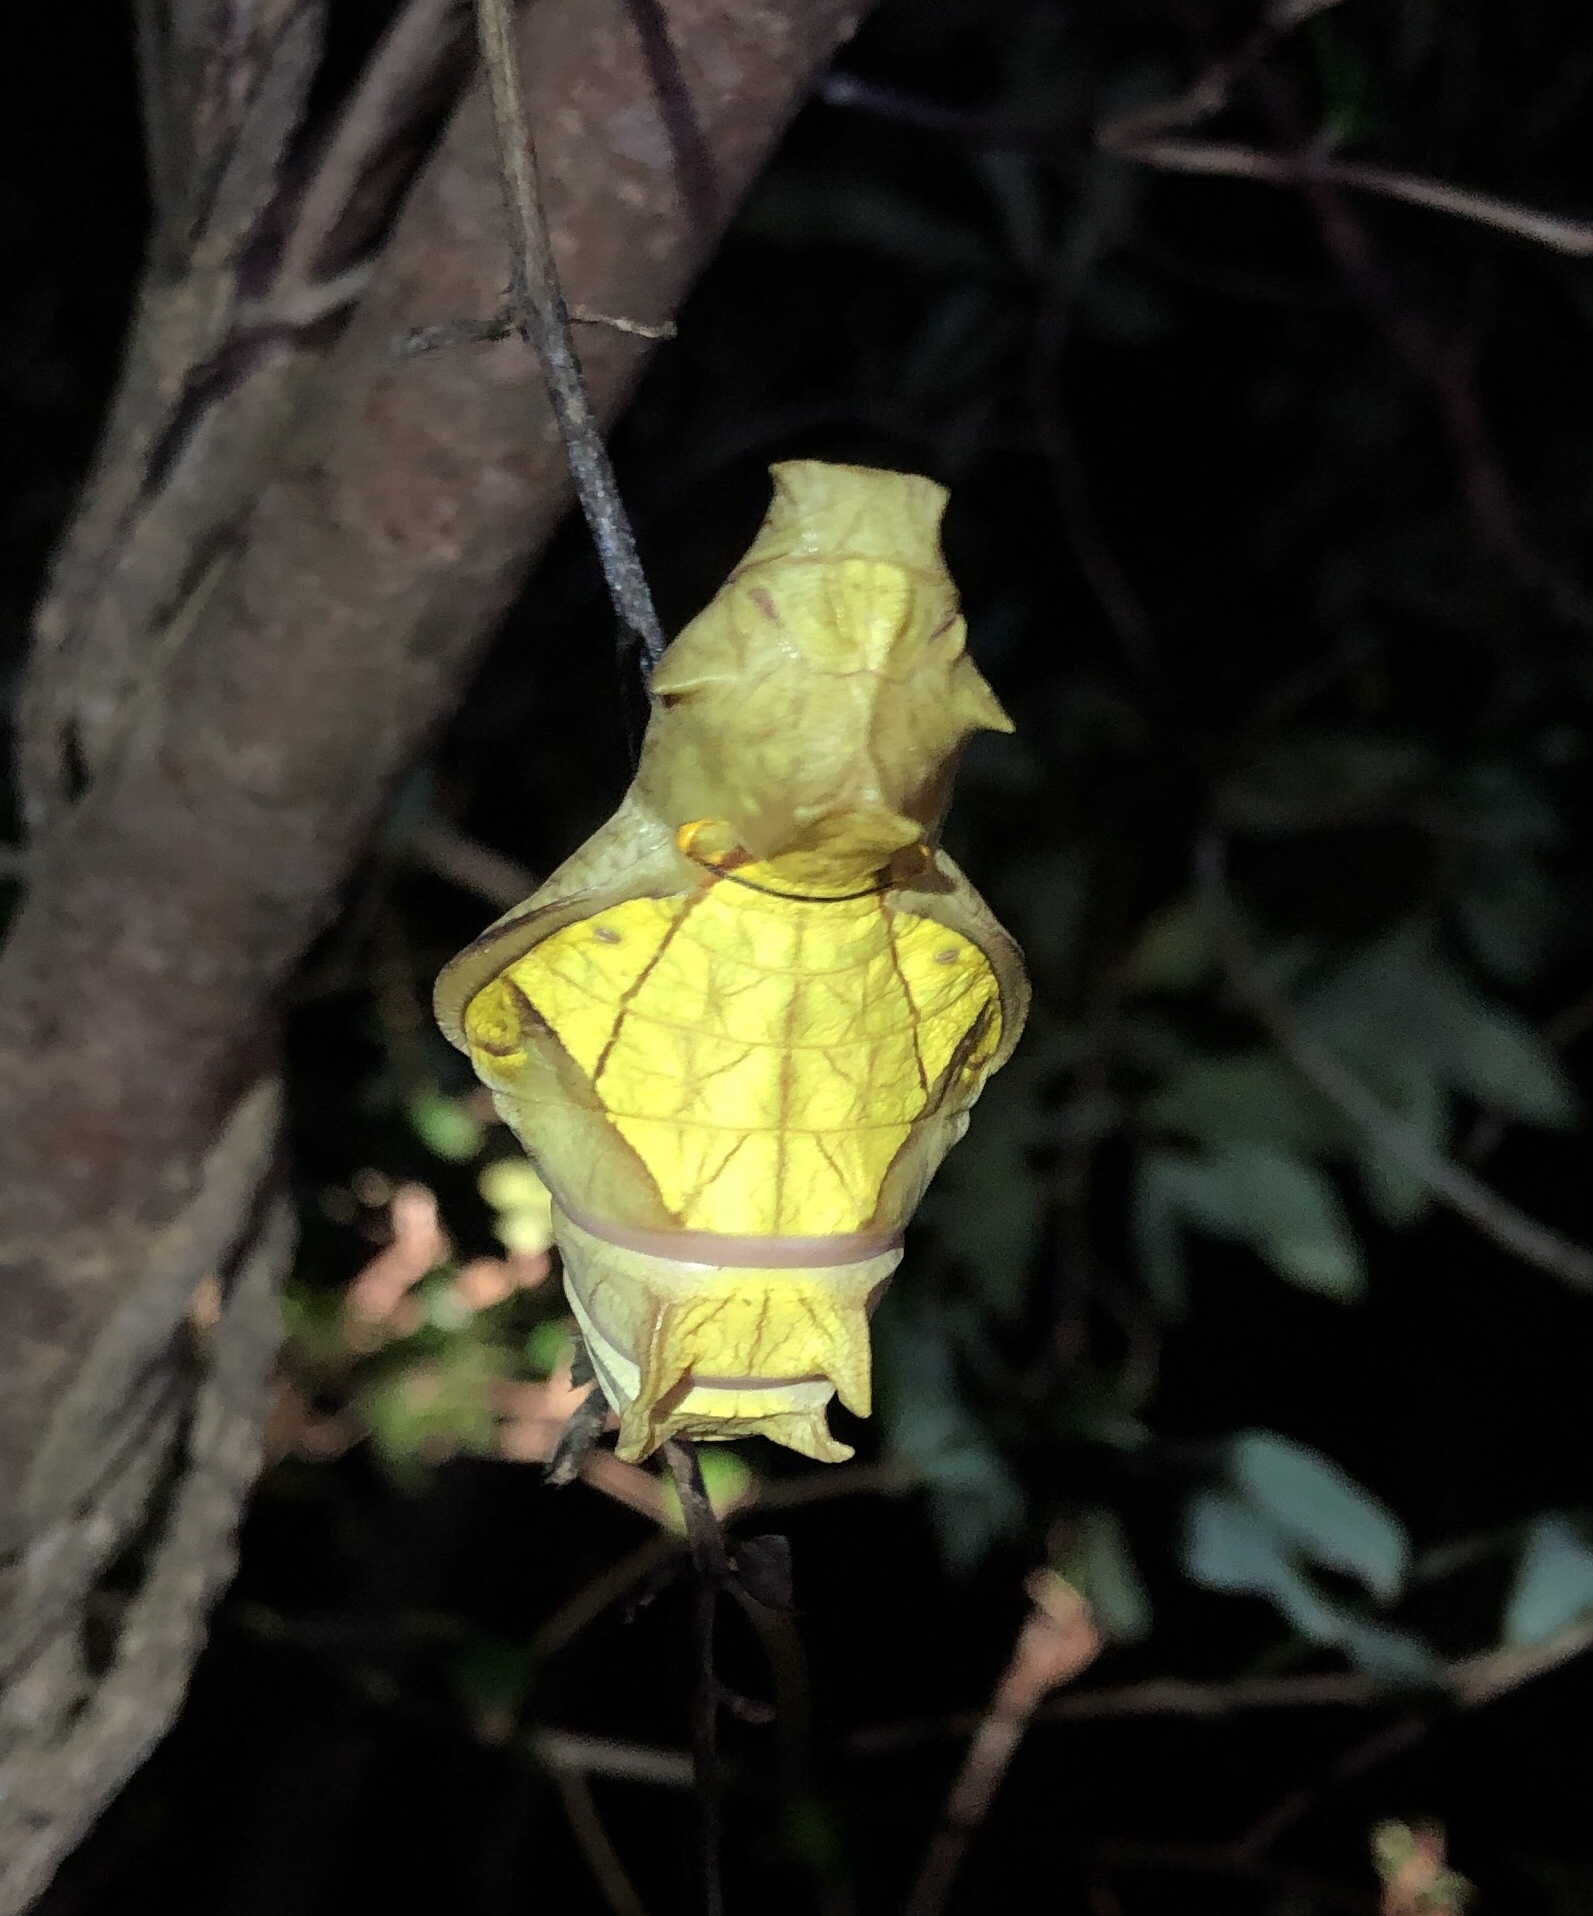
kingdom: Animalia
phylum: Arthropoda
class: Insecta
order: Lepidoptera
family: Papilionidae
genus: Troides
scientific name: Troides aeacus
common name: Golden birdwing
